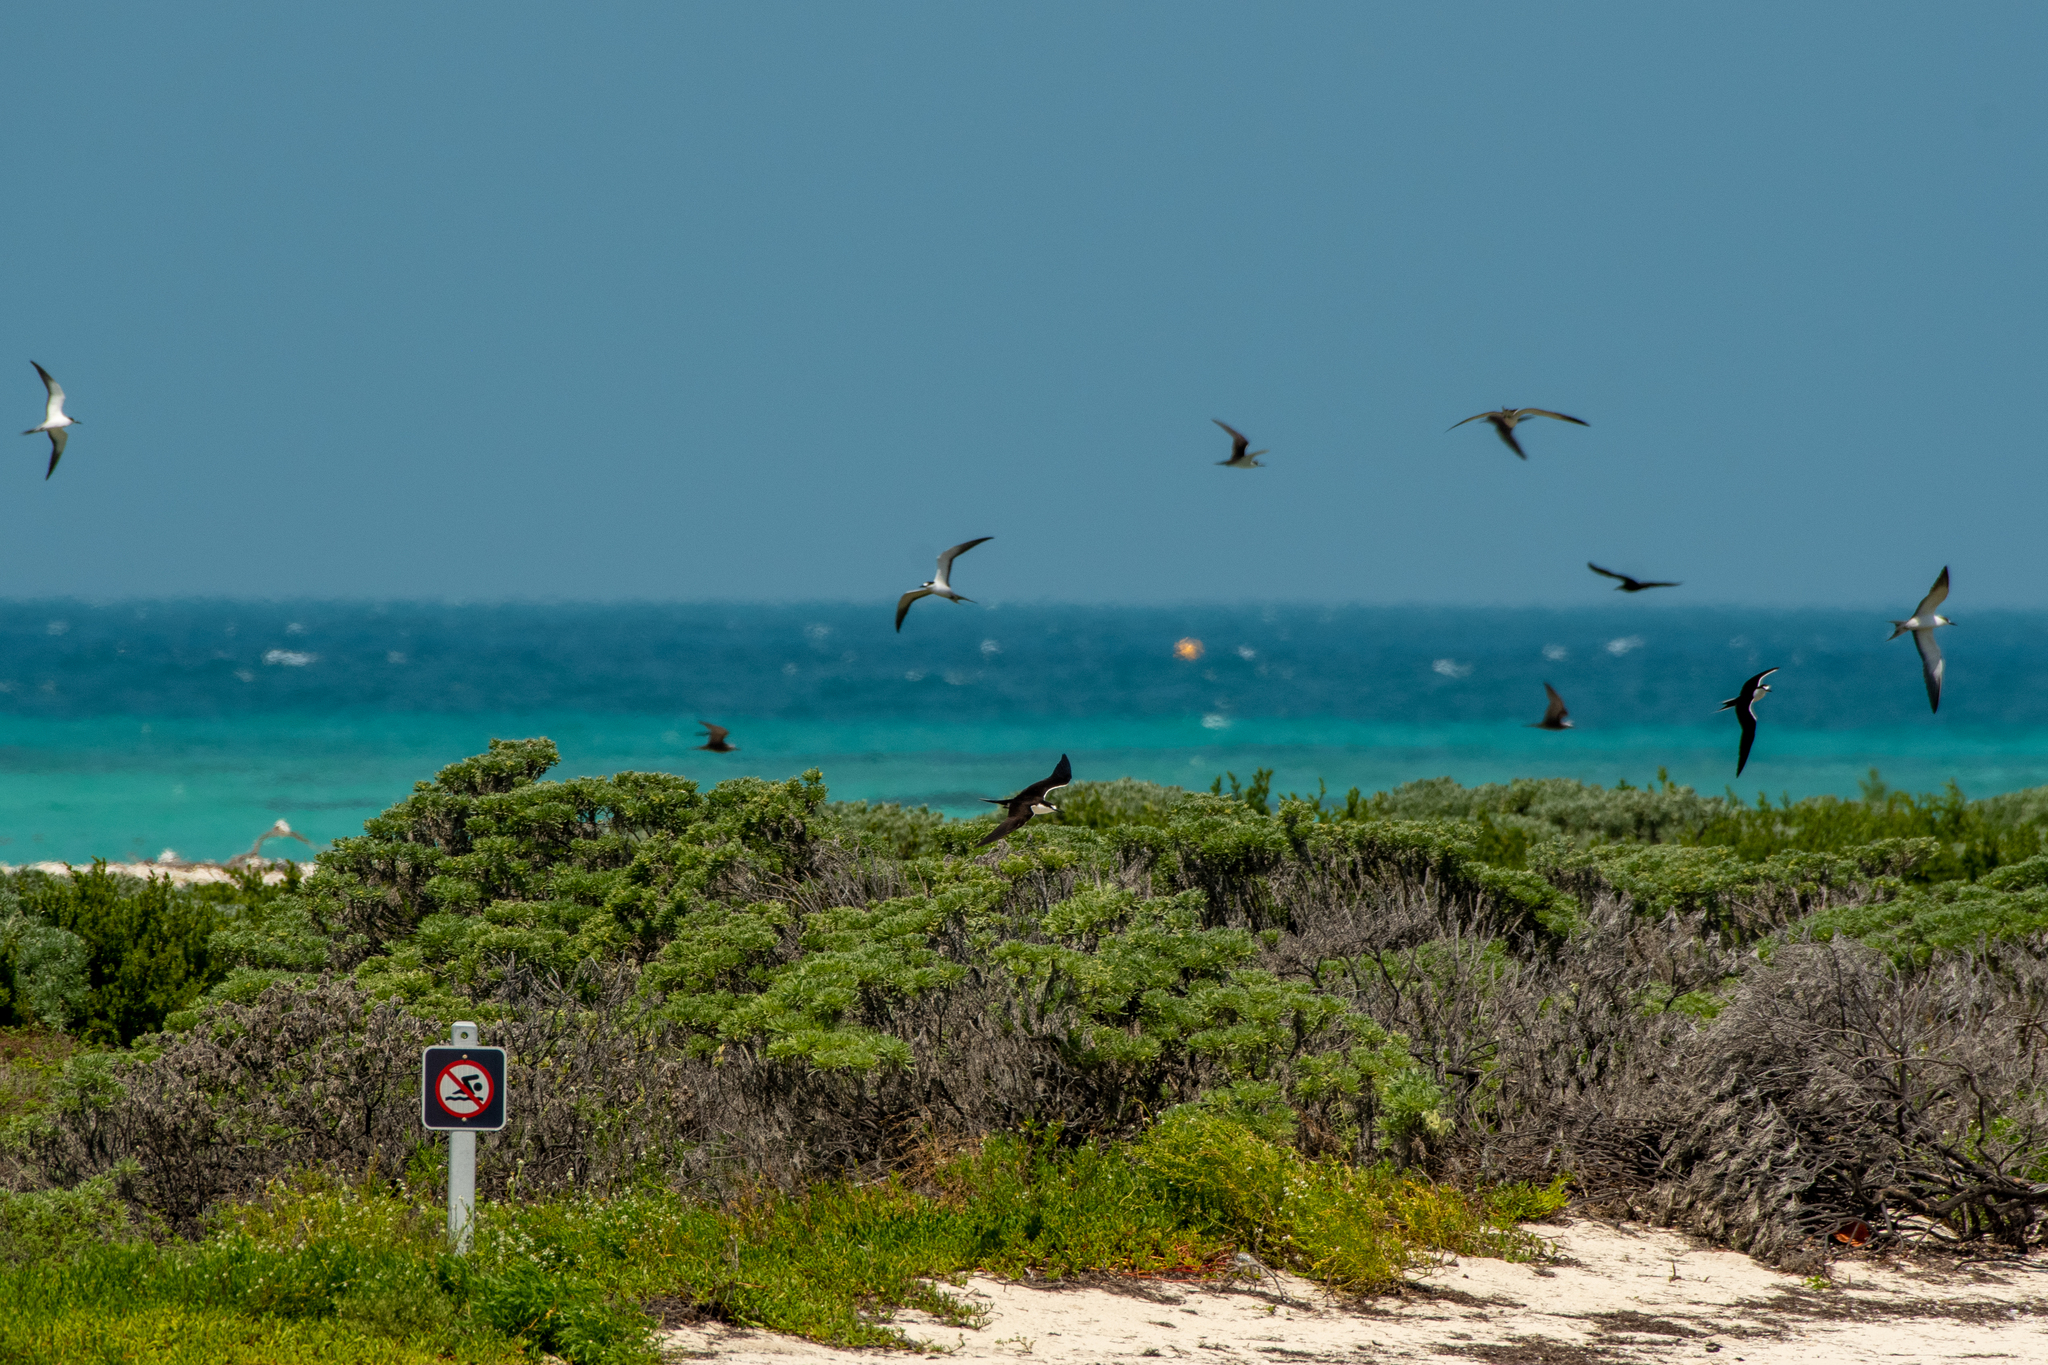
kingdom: Animalia
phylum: Chordata
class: Aves
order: Charadriiformes
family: Laridae
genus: Onychoprion
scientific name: Onychoprion fuscatus
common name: Sooty tern
